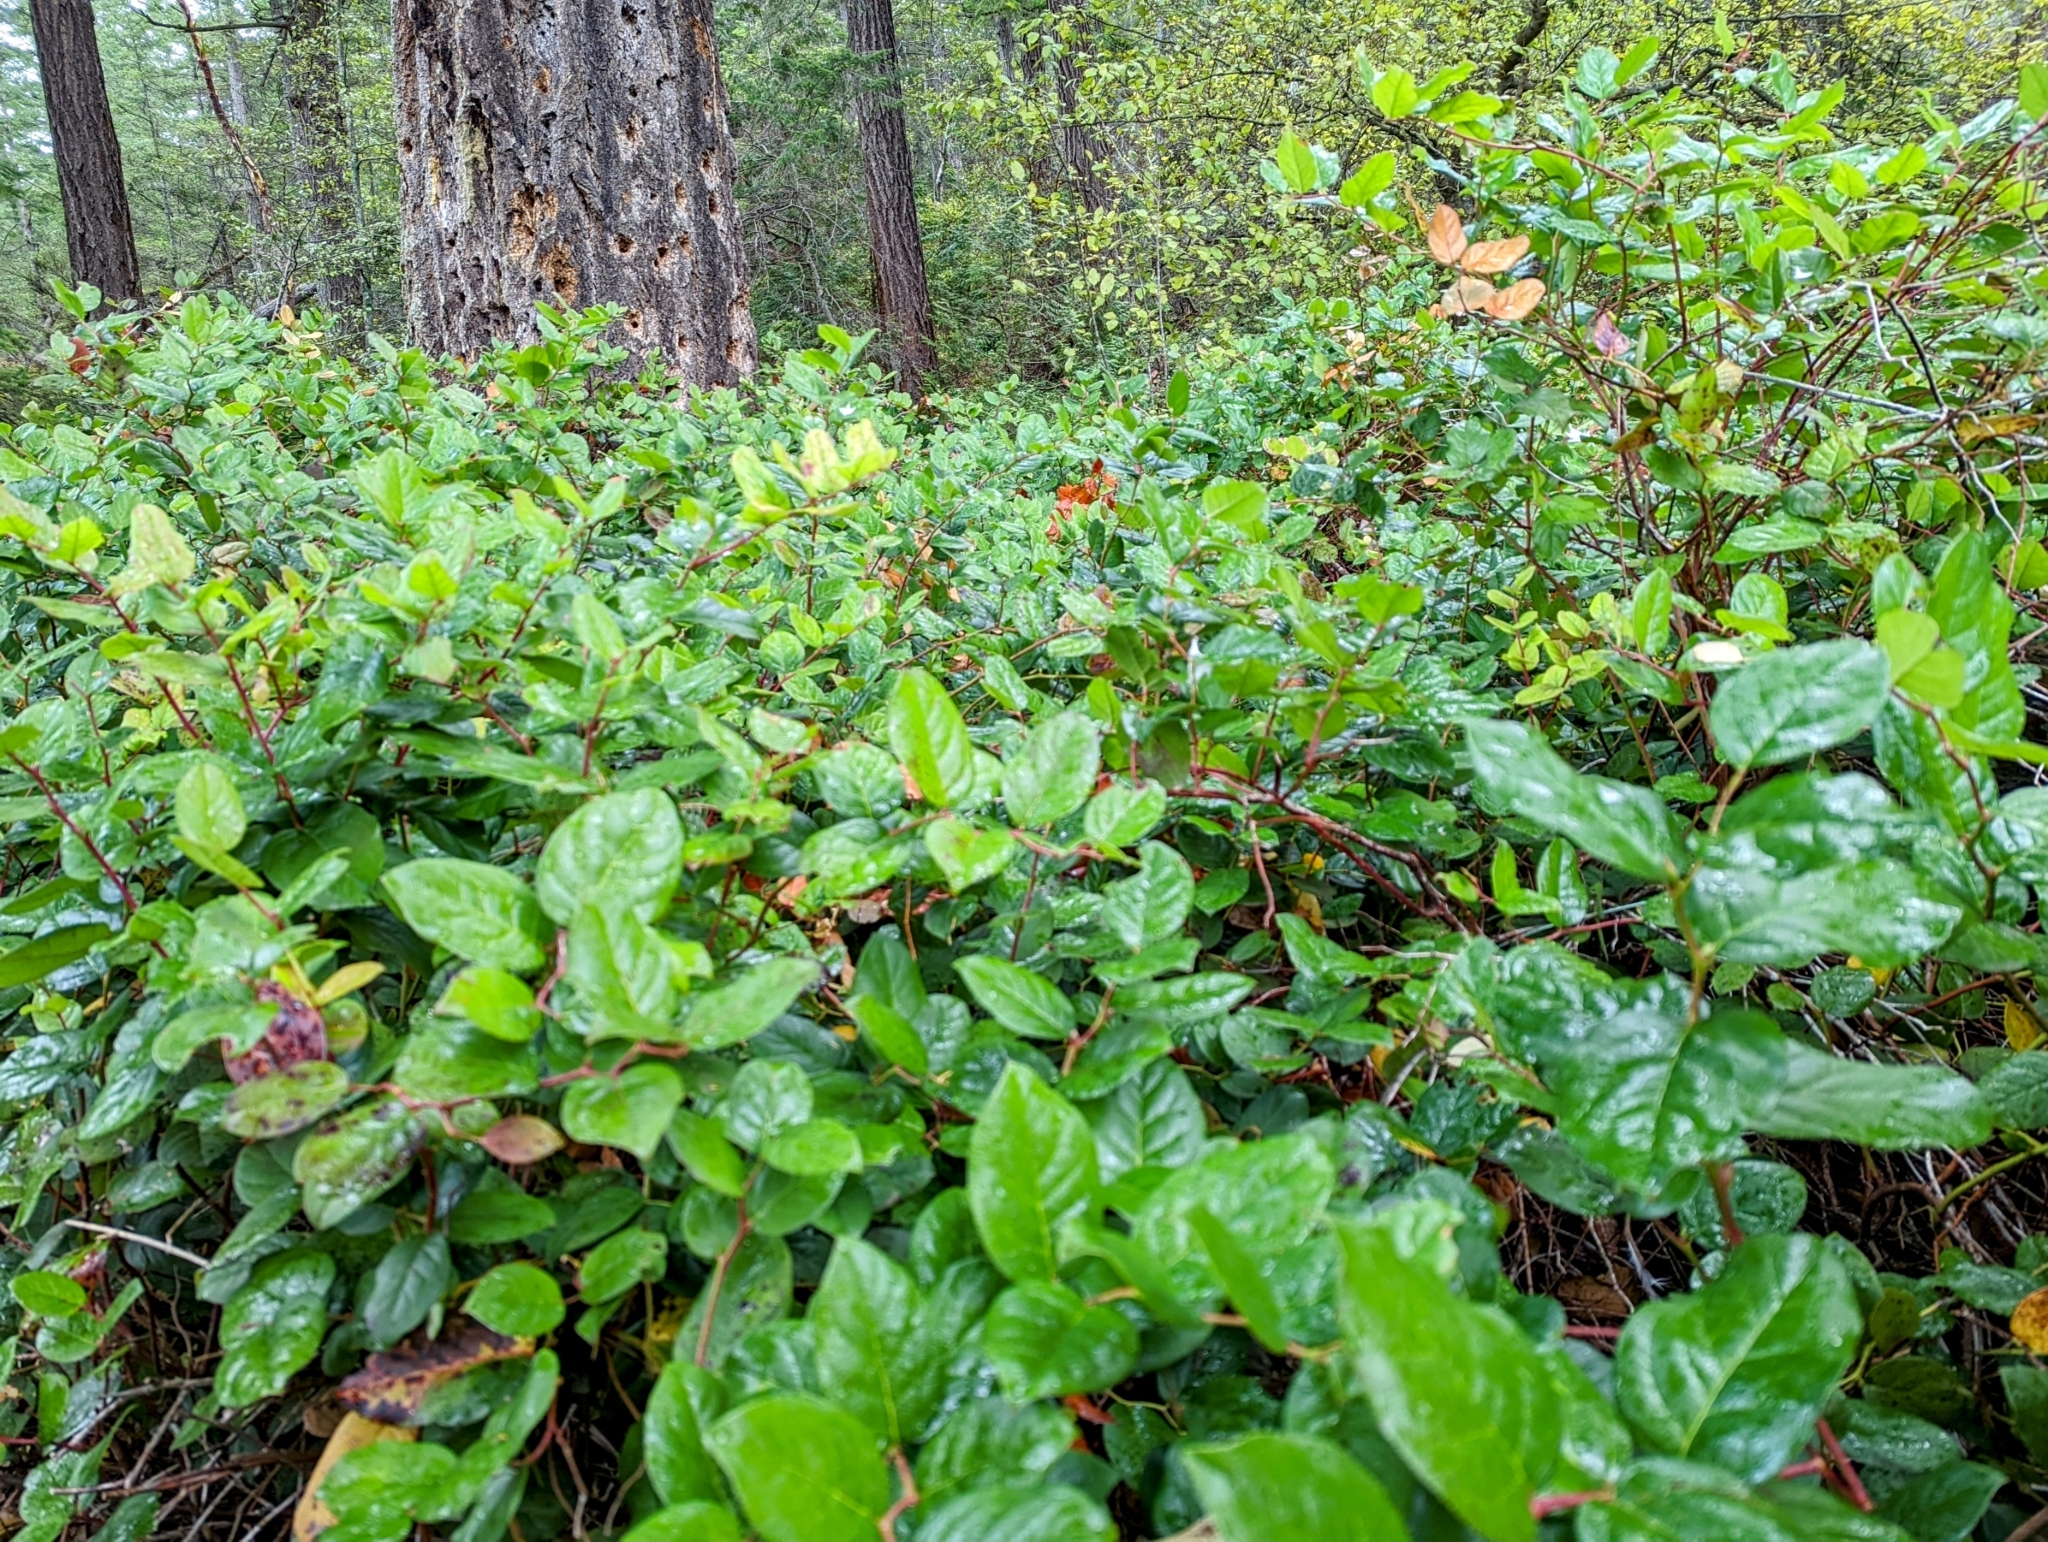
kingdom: Plantae
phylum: Tracheophyta
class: Magnoliopsida
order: Ericales
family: Ericaceae
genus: Gaultheria
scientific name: Gaultheria shallon
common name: Shallon
